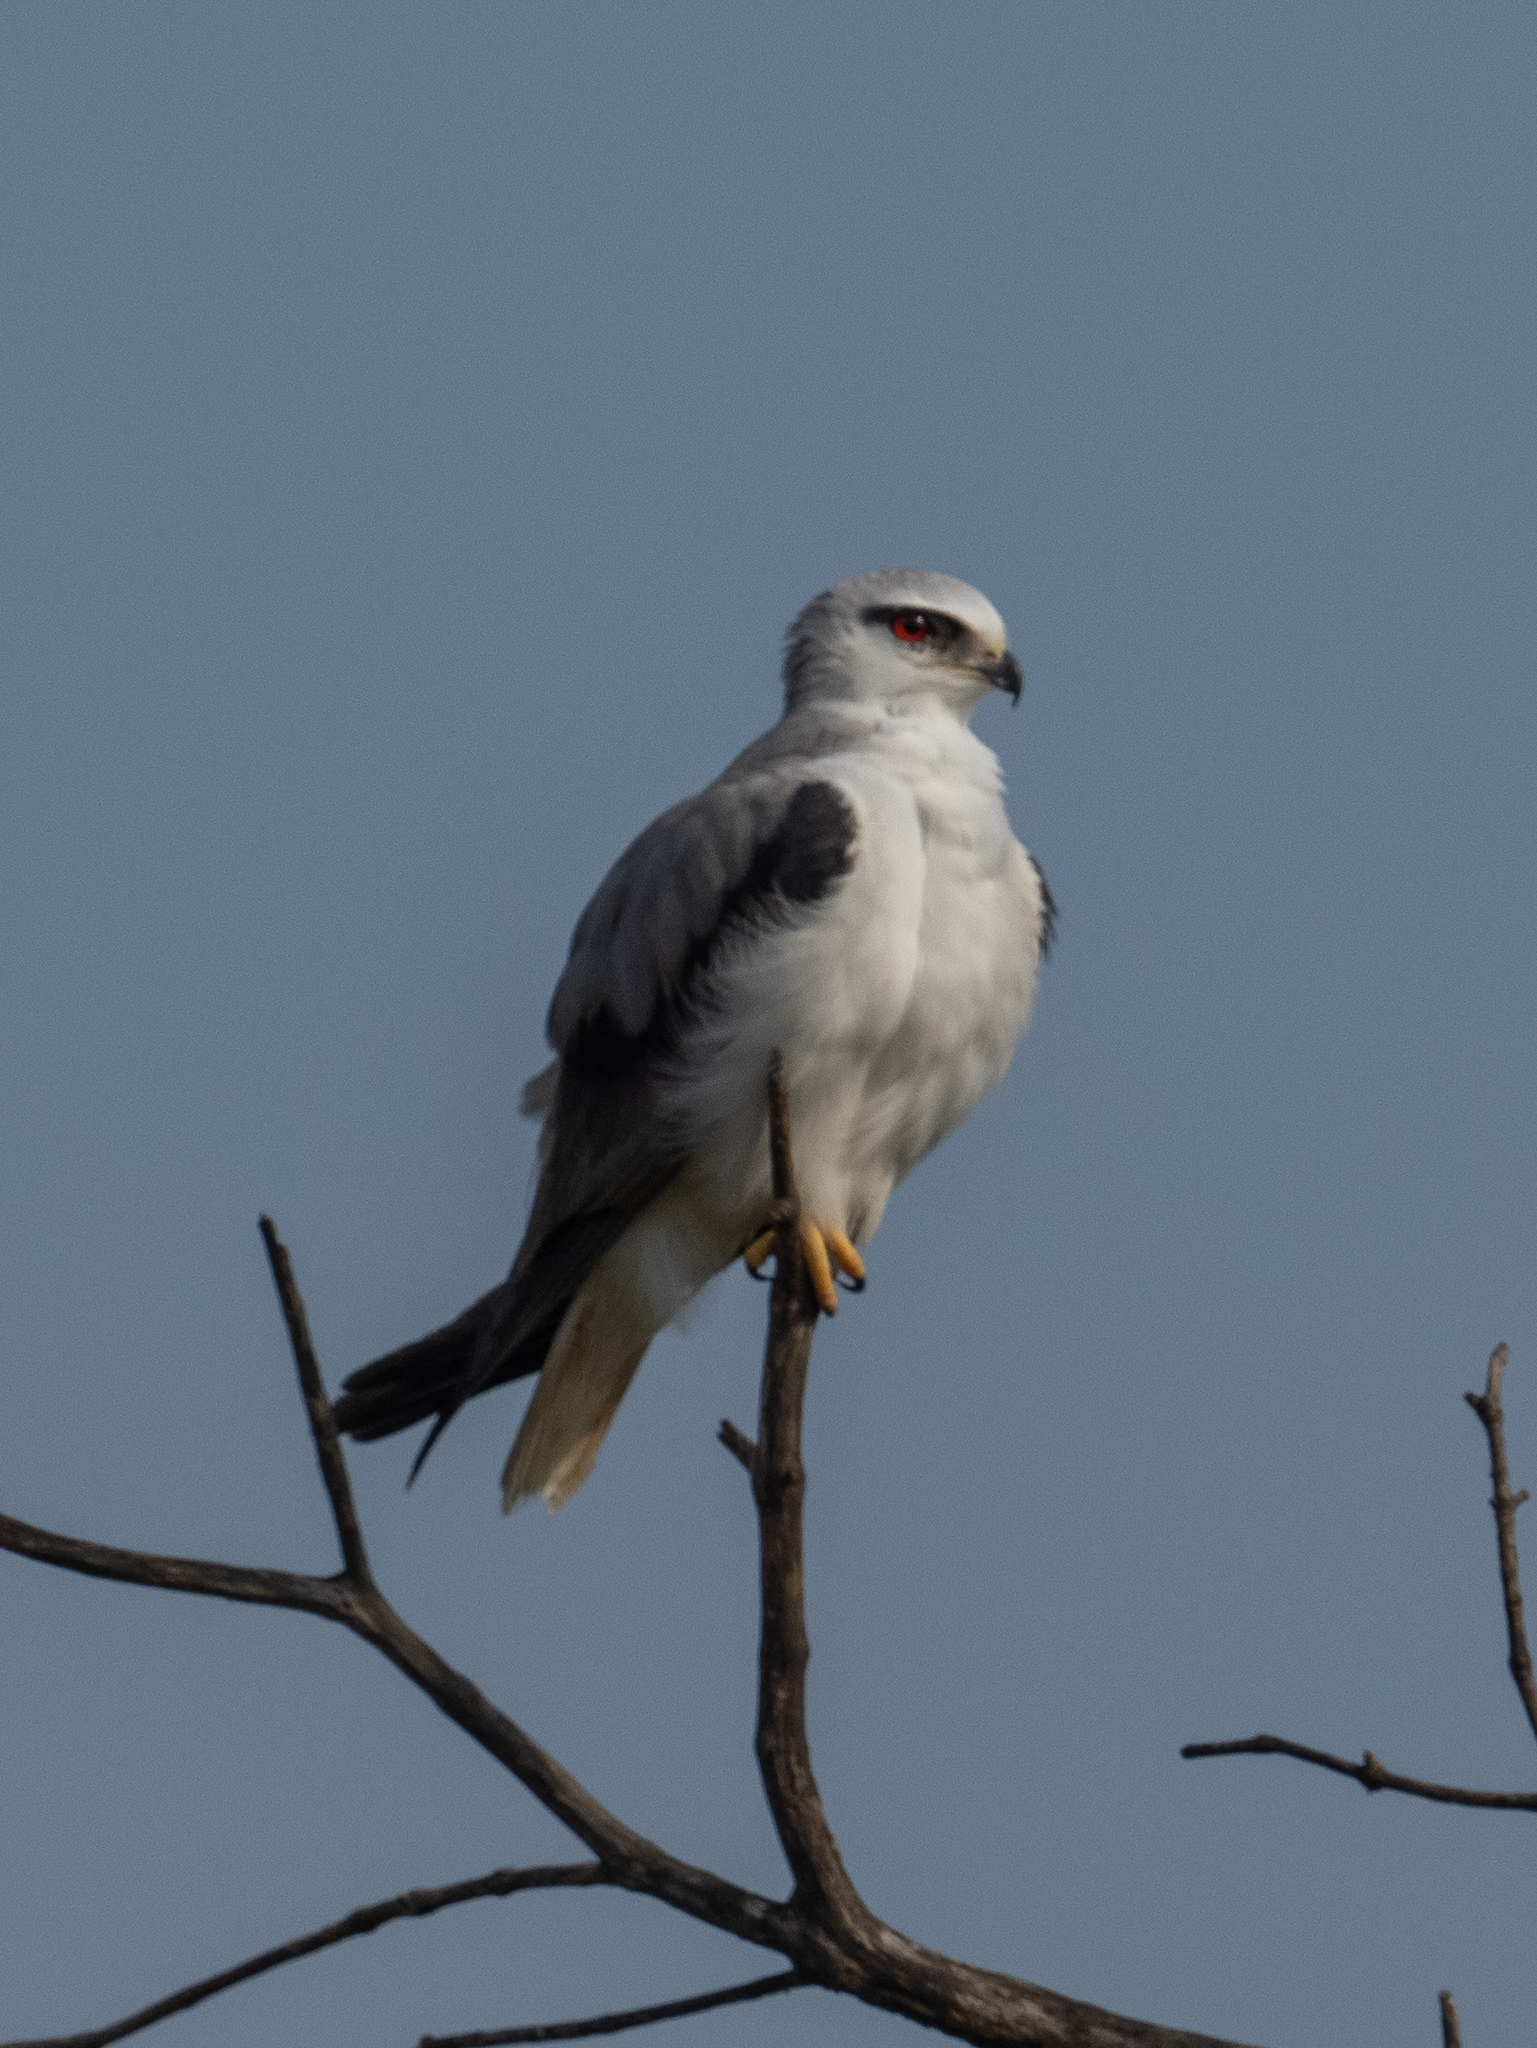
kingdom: Animalia
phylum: Chordata
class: Aves
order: Accipitriformes
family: Accipitridae
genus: Elanus
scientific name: Elanus caeruleus
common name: Black-winged kite
